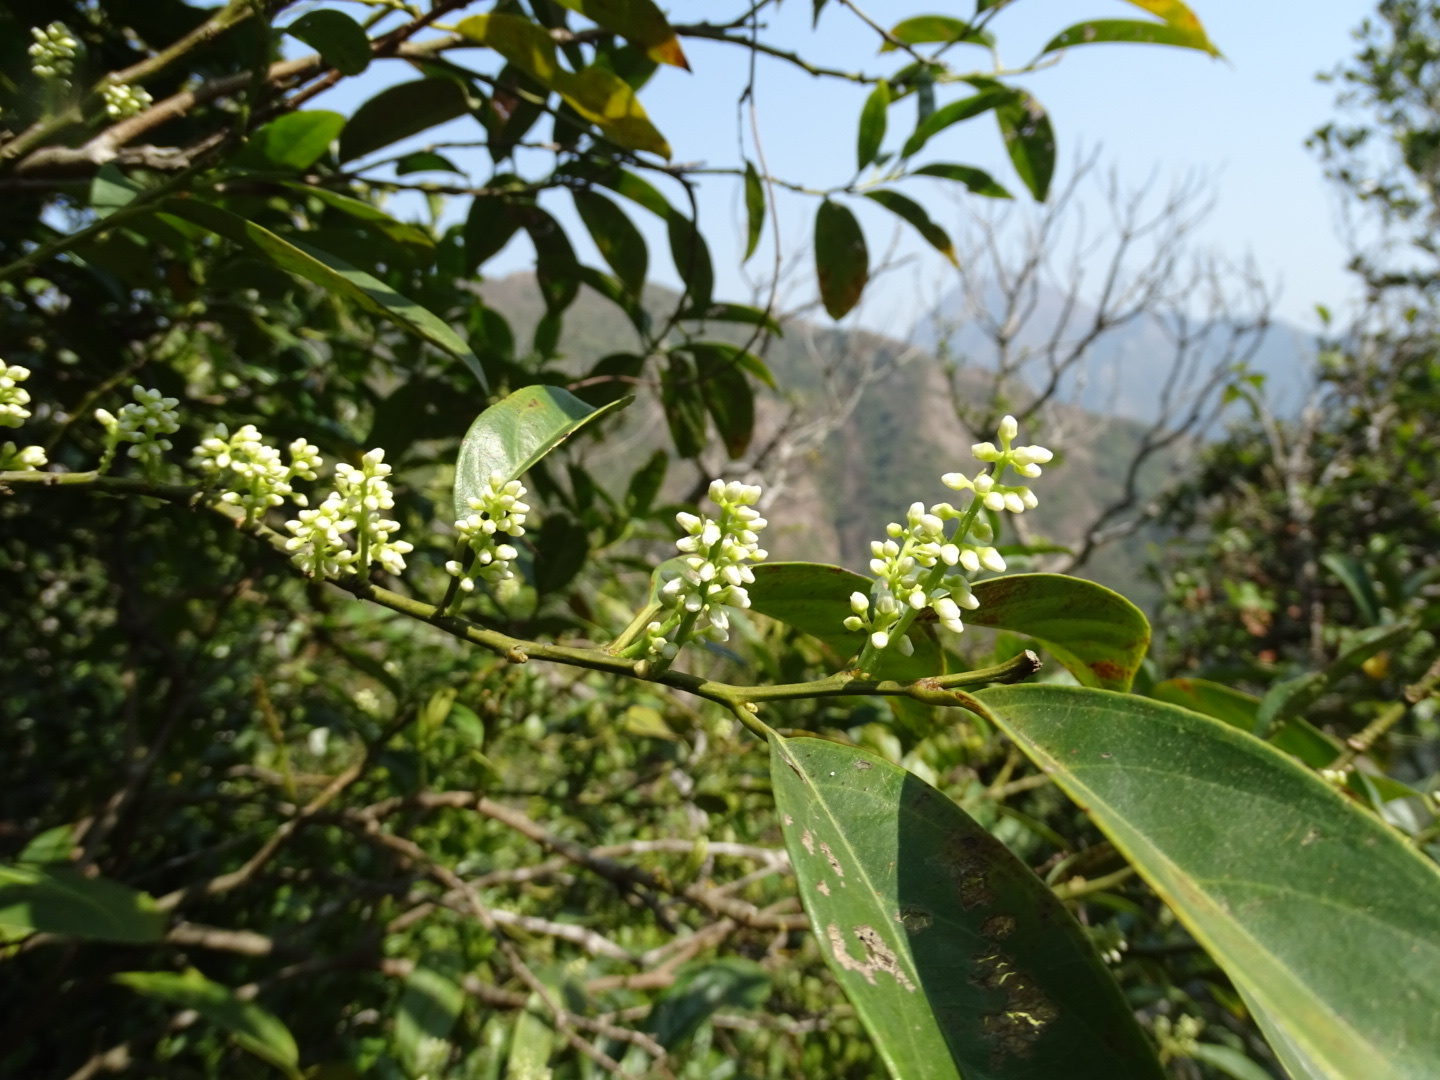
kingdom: Plantae
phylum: Tracheophyta
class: Magnoliopsida
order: Saxifragales
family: Iteaceae
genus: Itea
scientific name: Itea chinensis
